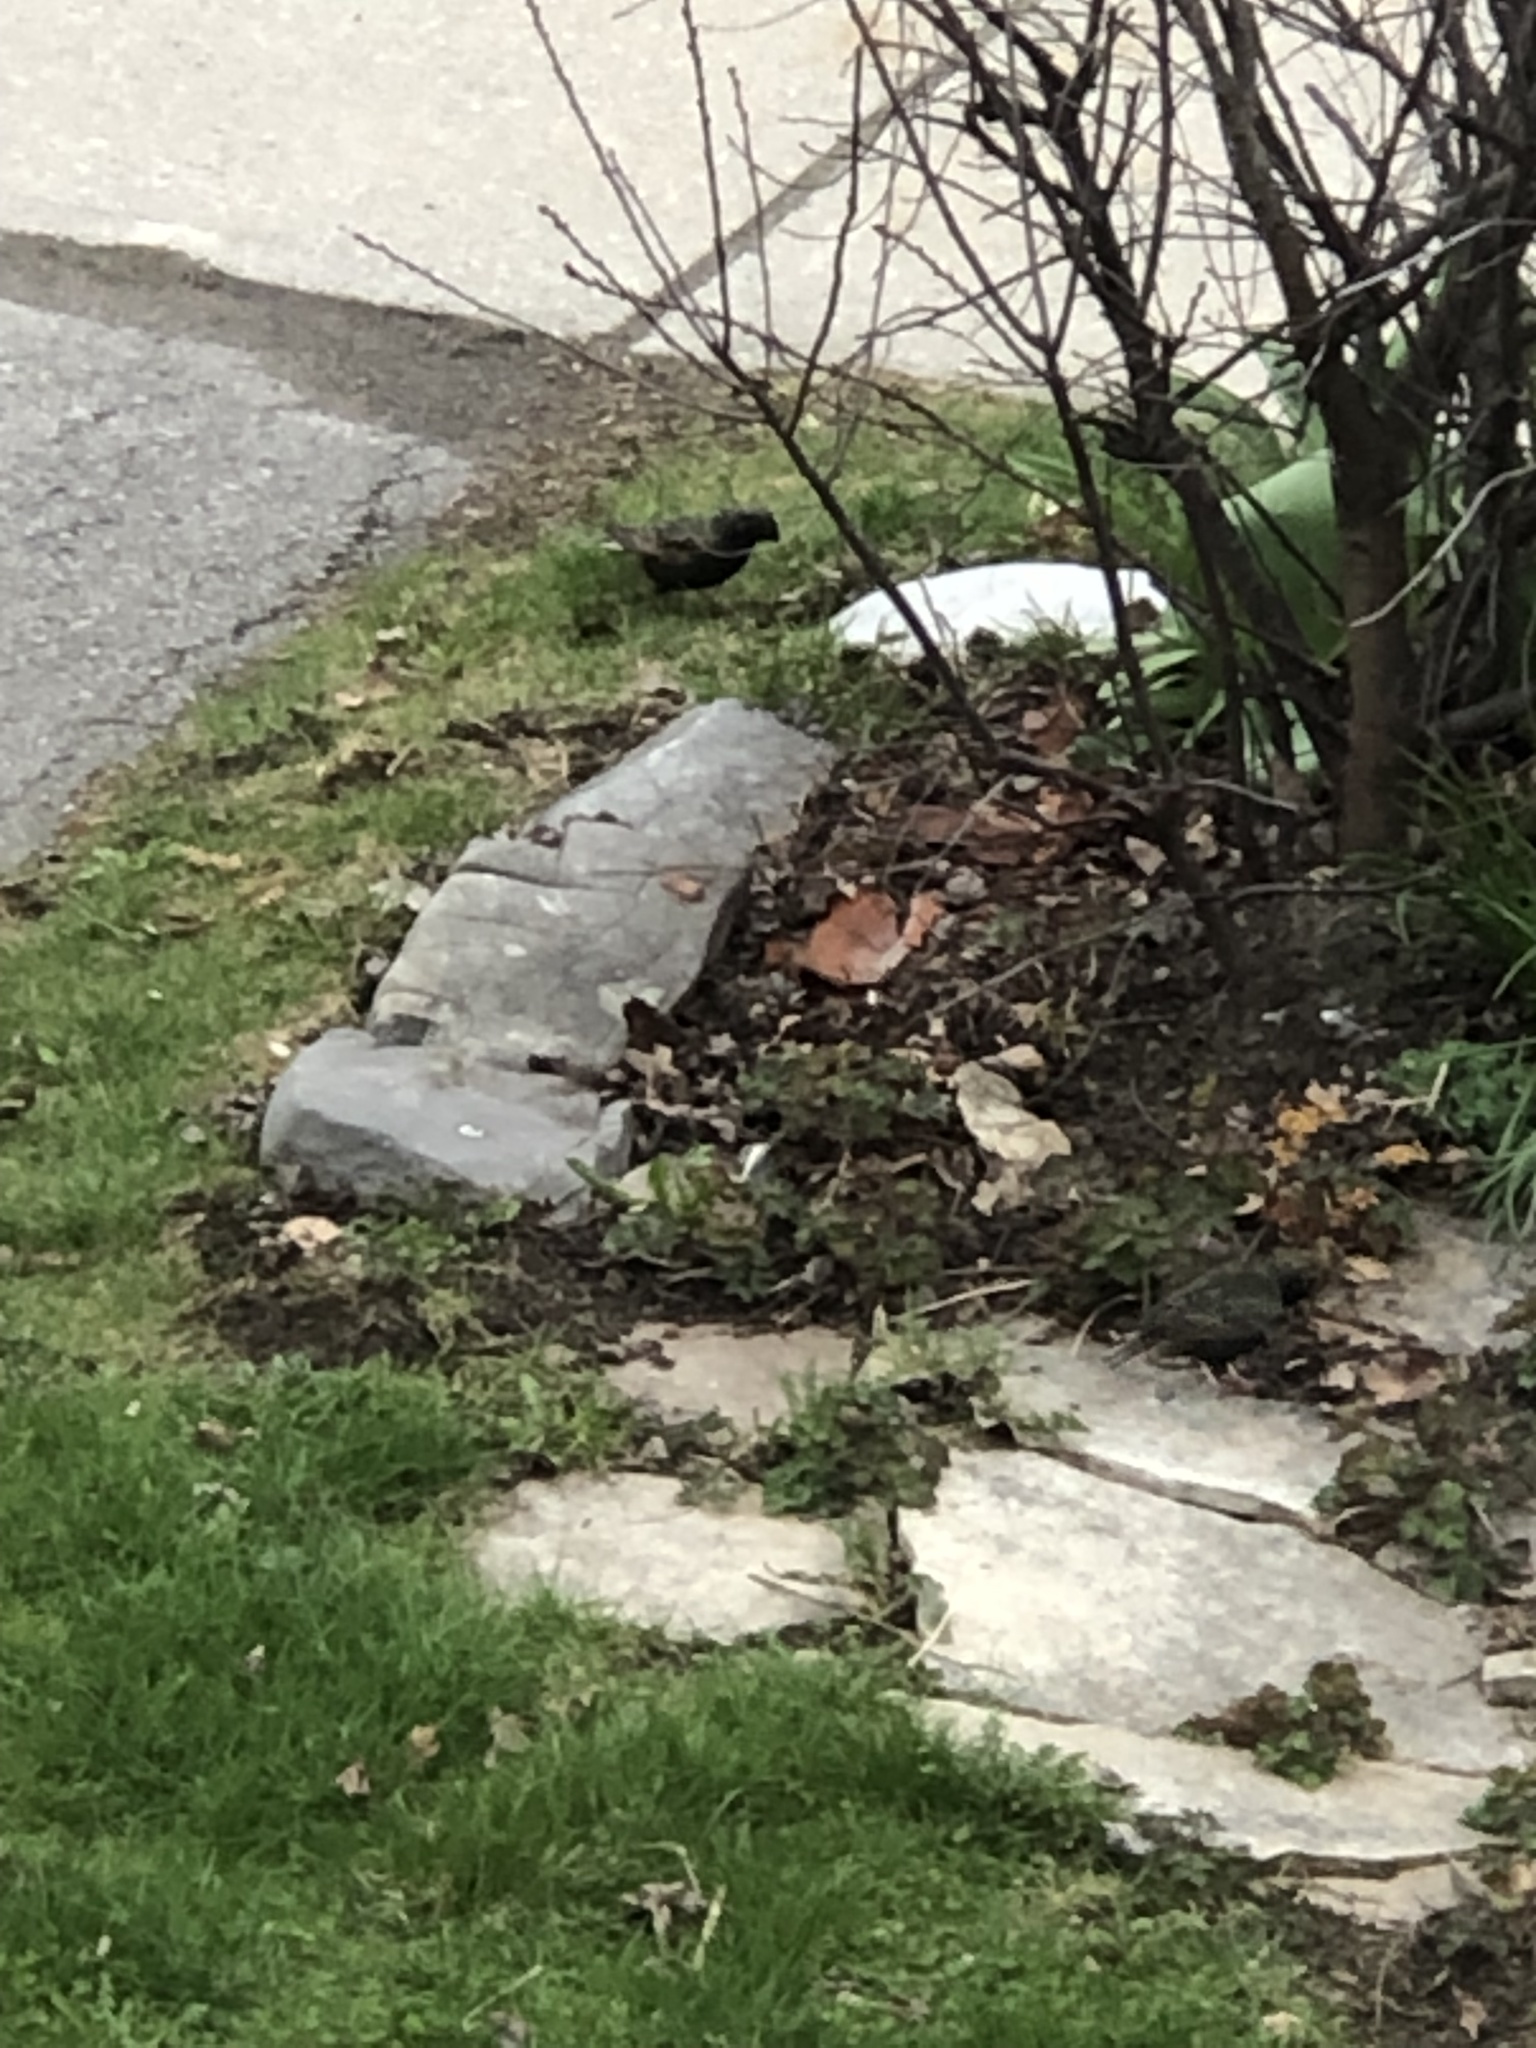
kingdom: Animalia
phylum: Chordata
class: Aves
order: Passeriformes
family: Sturnidae
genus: Sturnus
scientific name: Sturnus vulgaris
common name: Common starling
